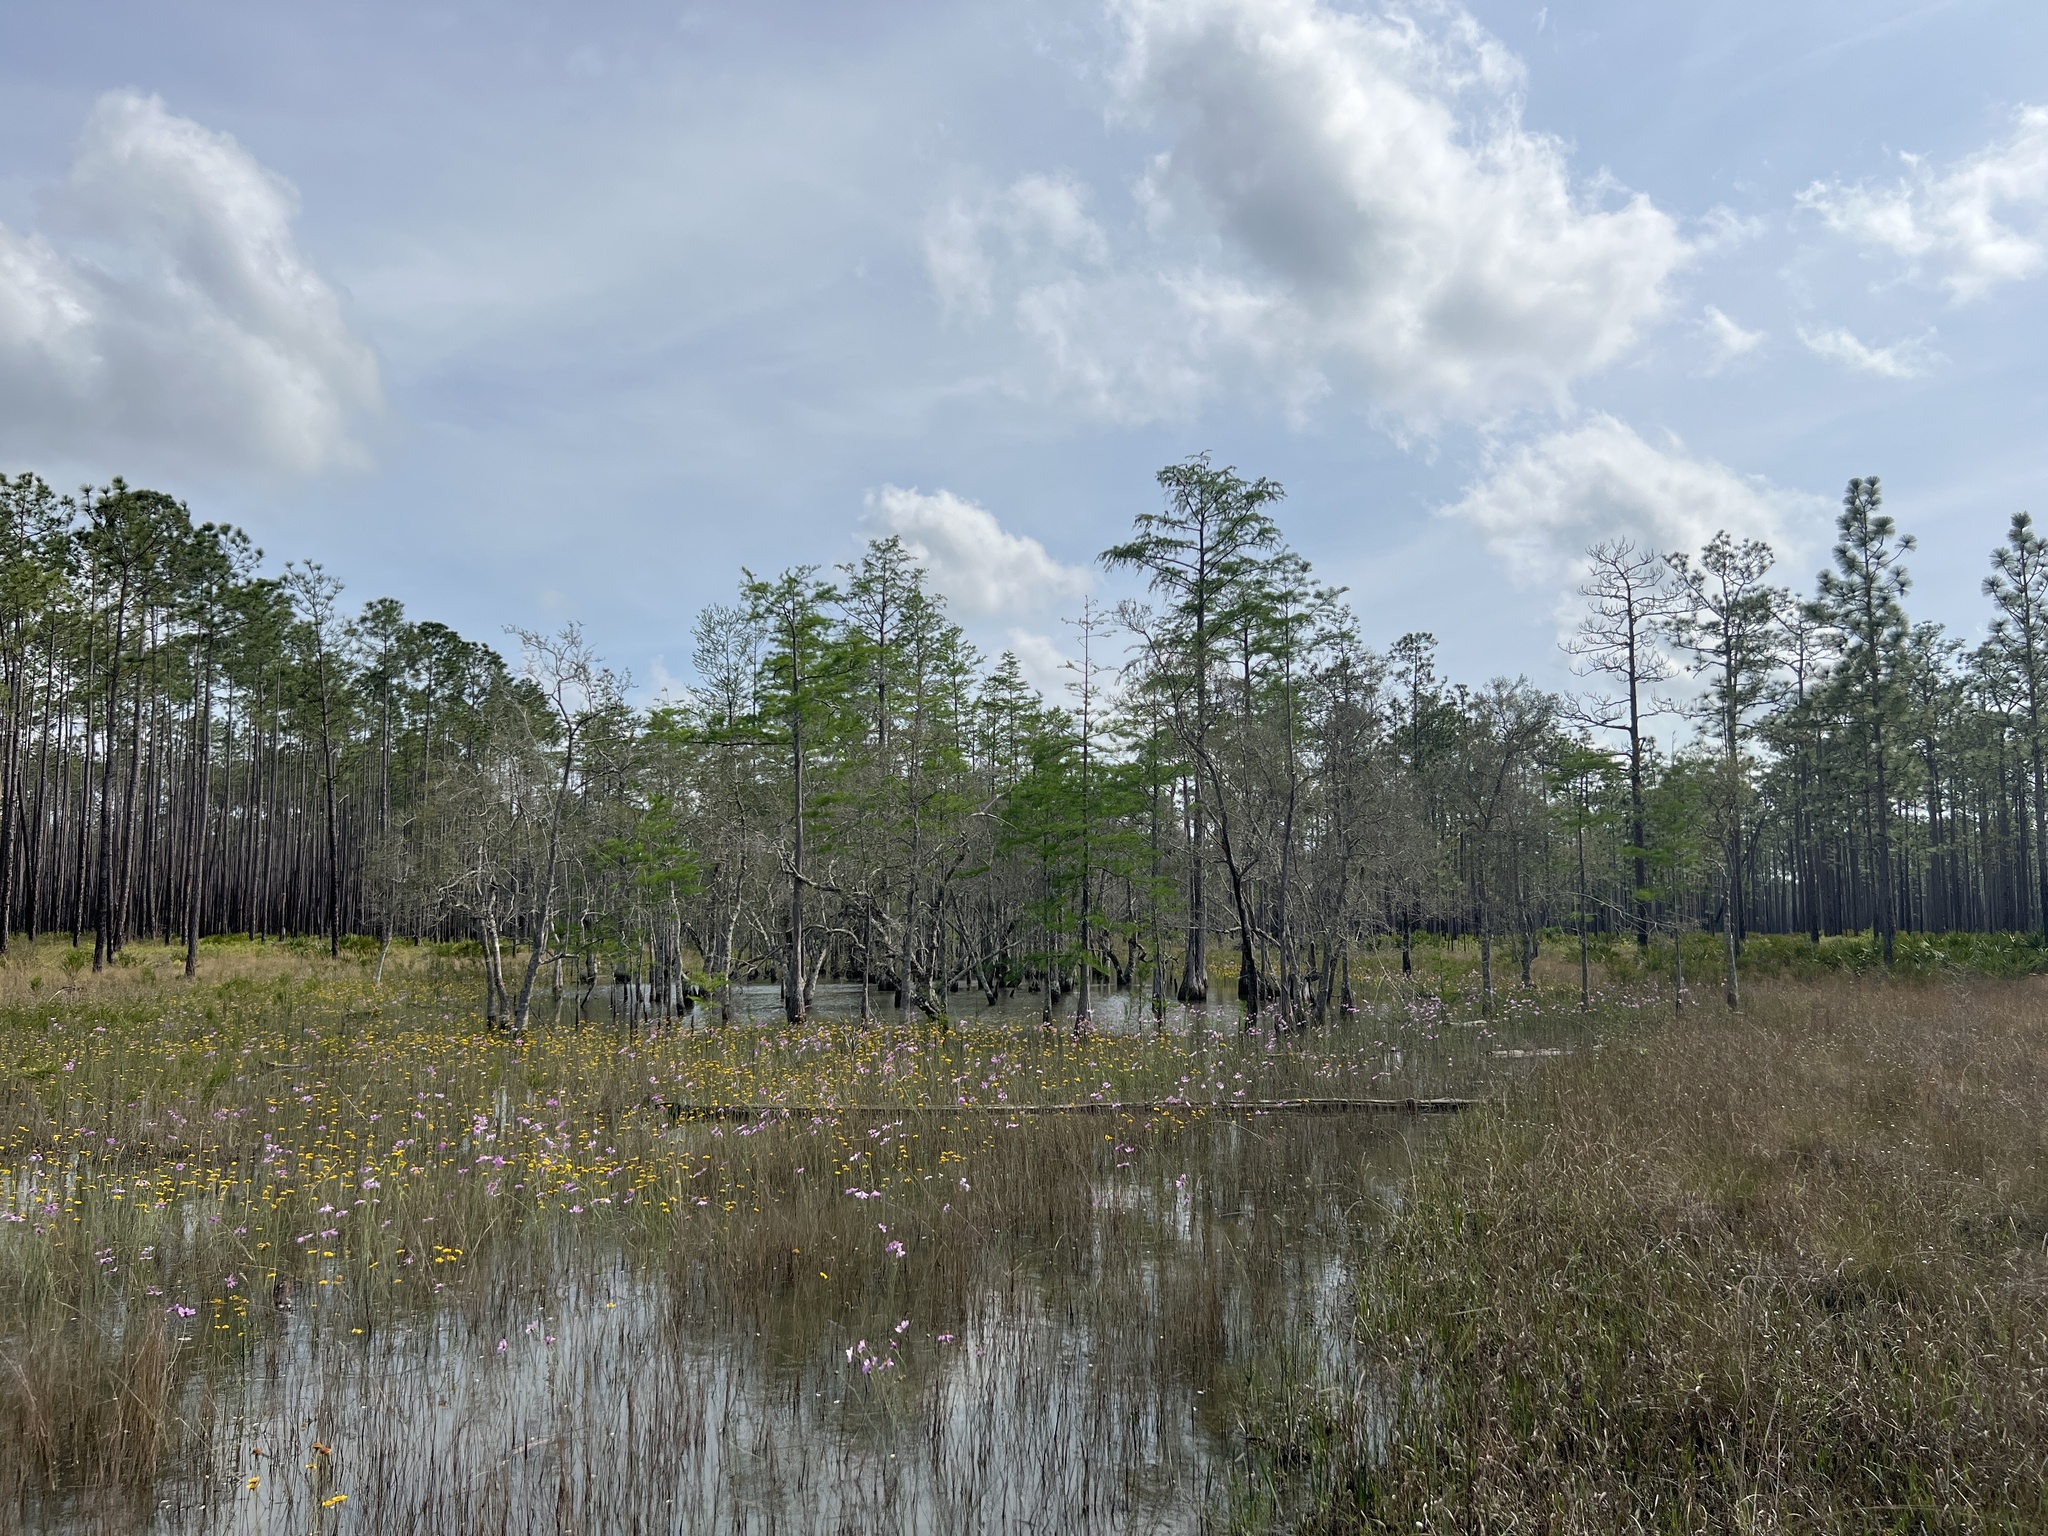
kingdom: Plantae
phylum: Tracheophyta
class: Pinopsida
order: Pinales
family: Cupressaceae
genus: Taxodium
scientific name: Taxodium distichum
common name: Bald cypress
